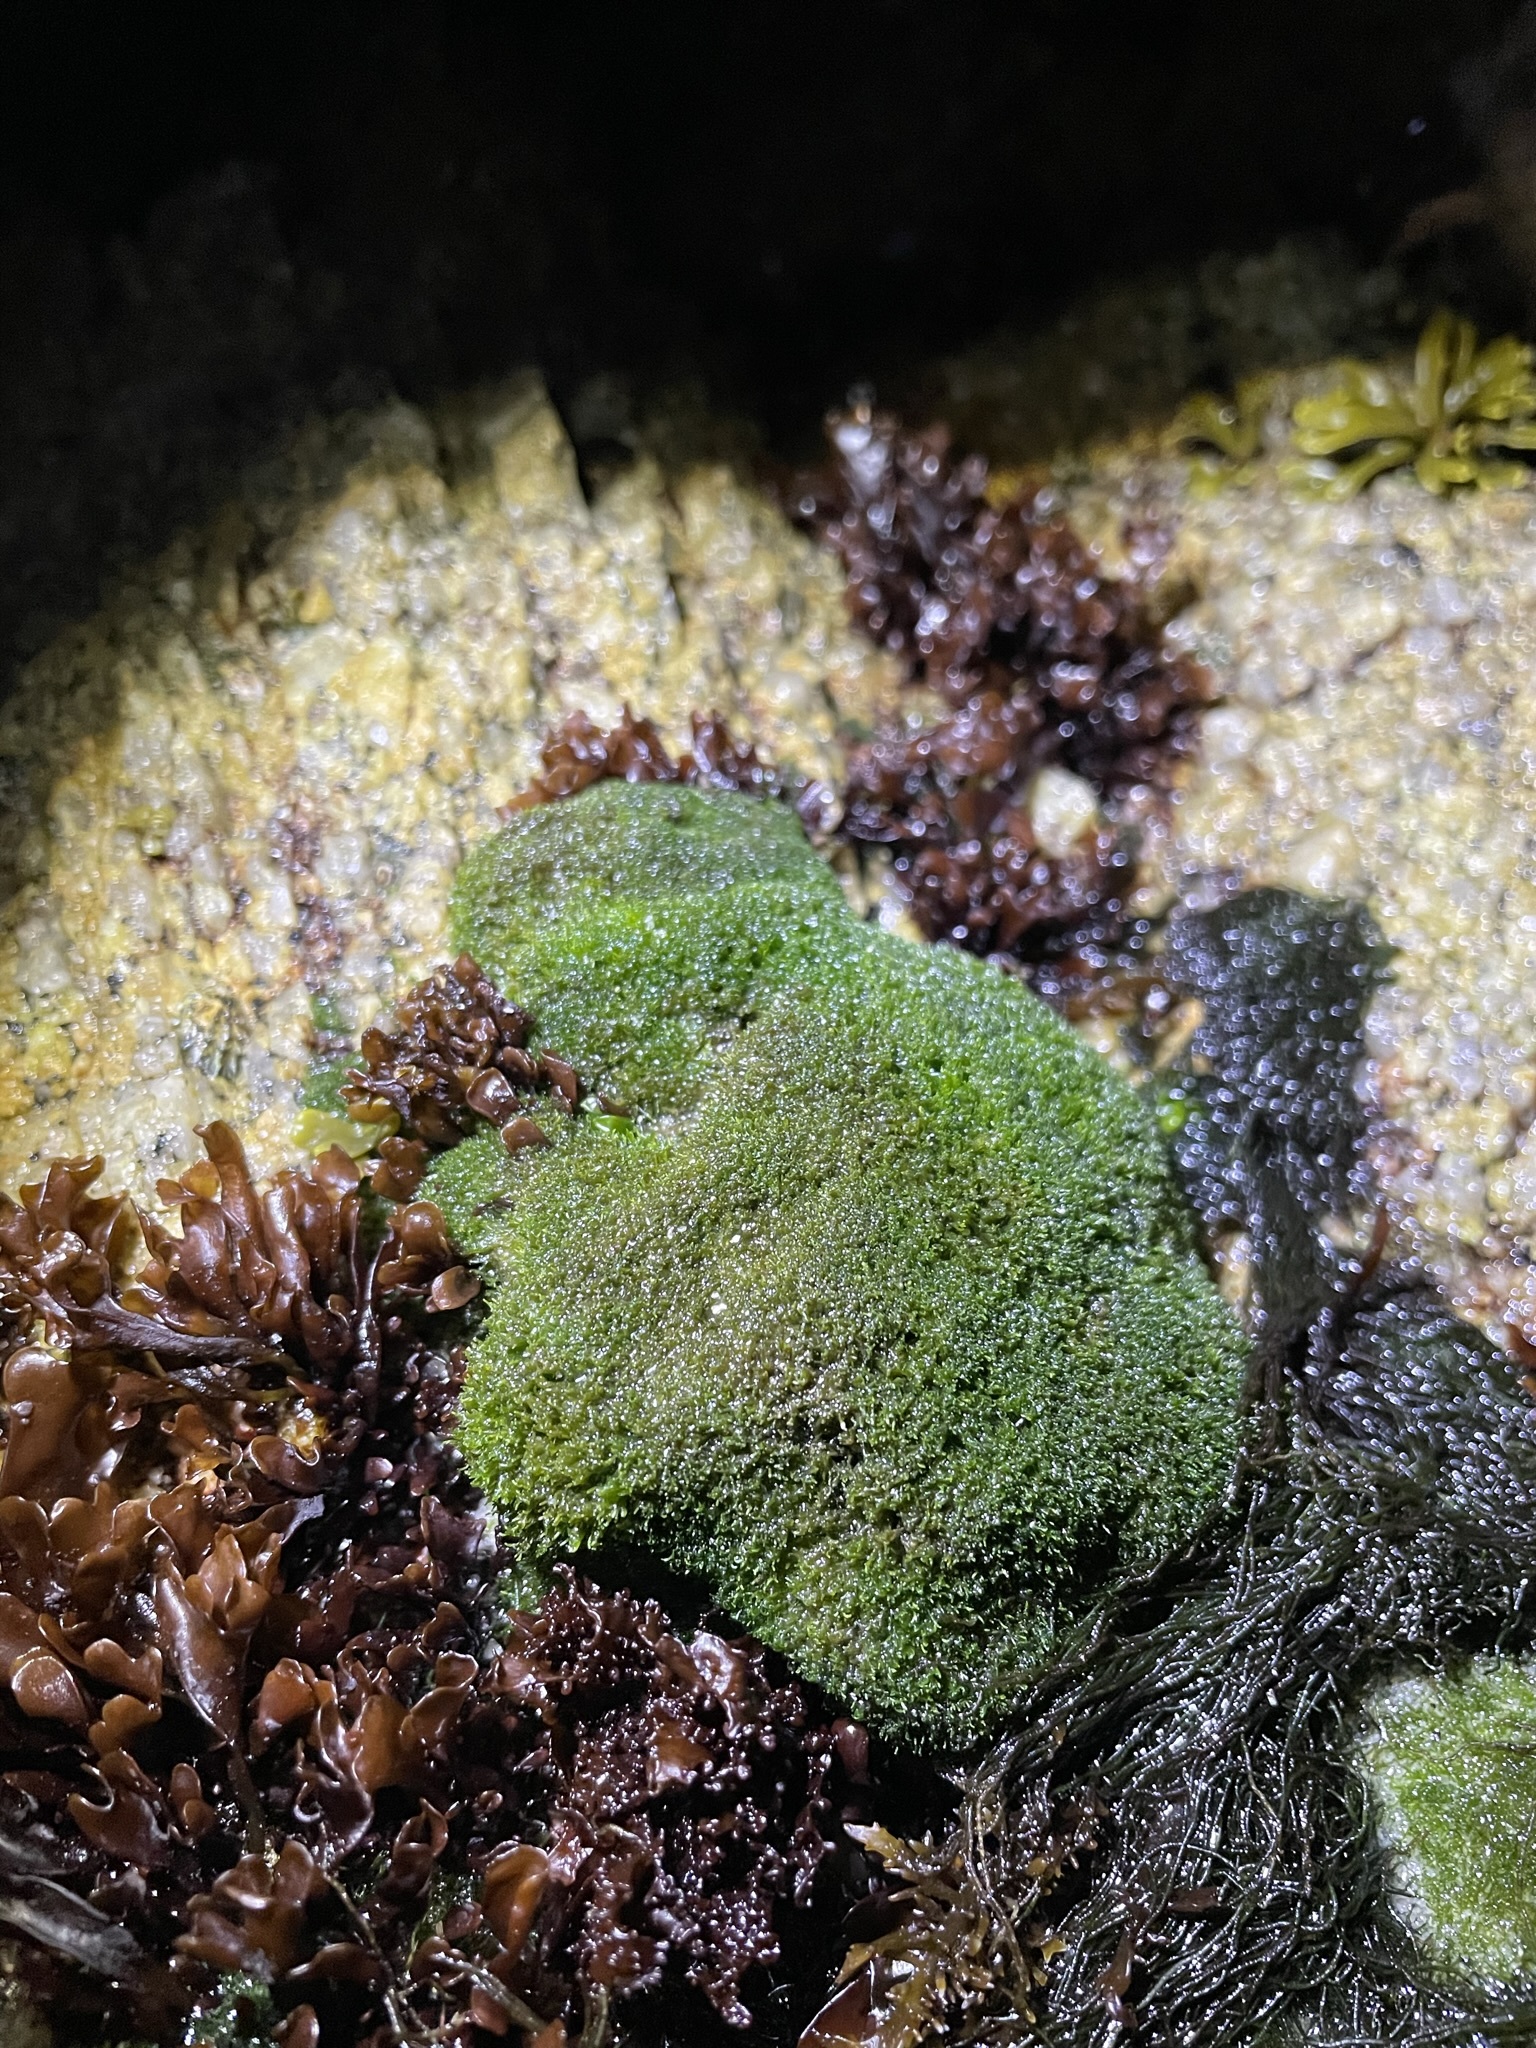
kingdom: Plantae
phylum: Chlorophyta
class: Ulvophyceae
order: Cladophorales
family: Cladophoraceae
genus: Cladophora
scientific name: Cladophora columbiana
